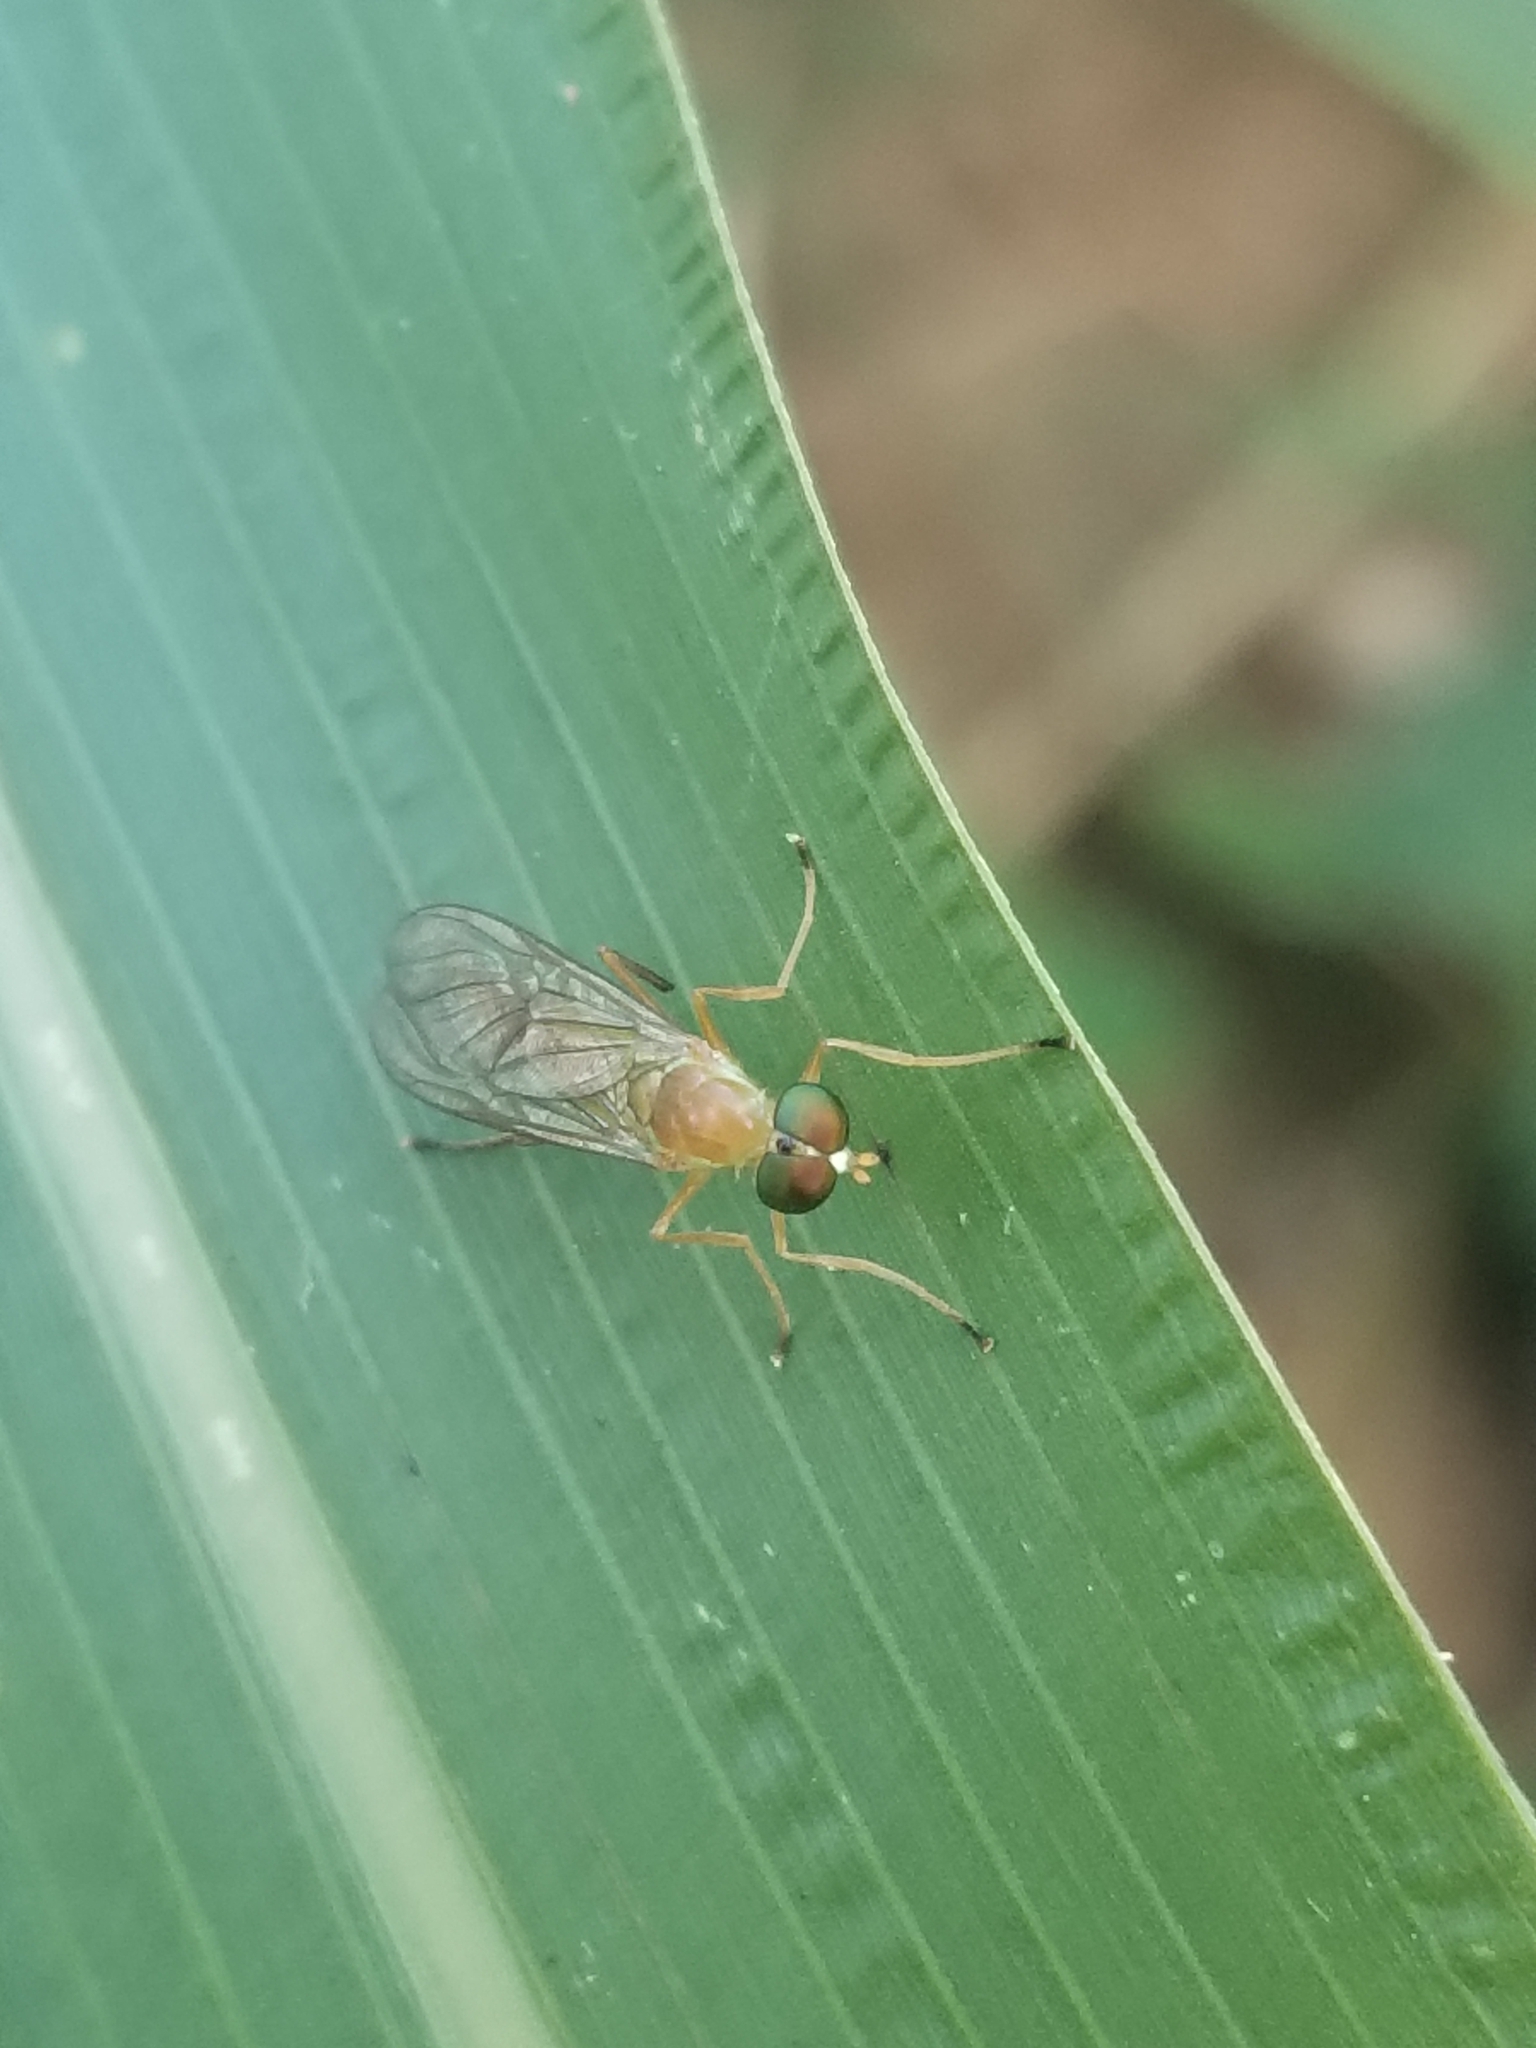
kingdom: Animalia
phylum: Arthropoda
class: Insecta
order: Diptera
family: Stratiomyidae
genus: Ptecticus
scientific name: Ptecticus trivittatus
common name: Compost fly
